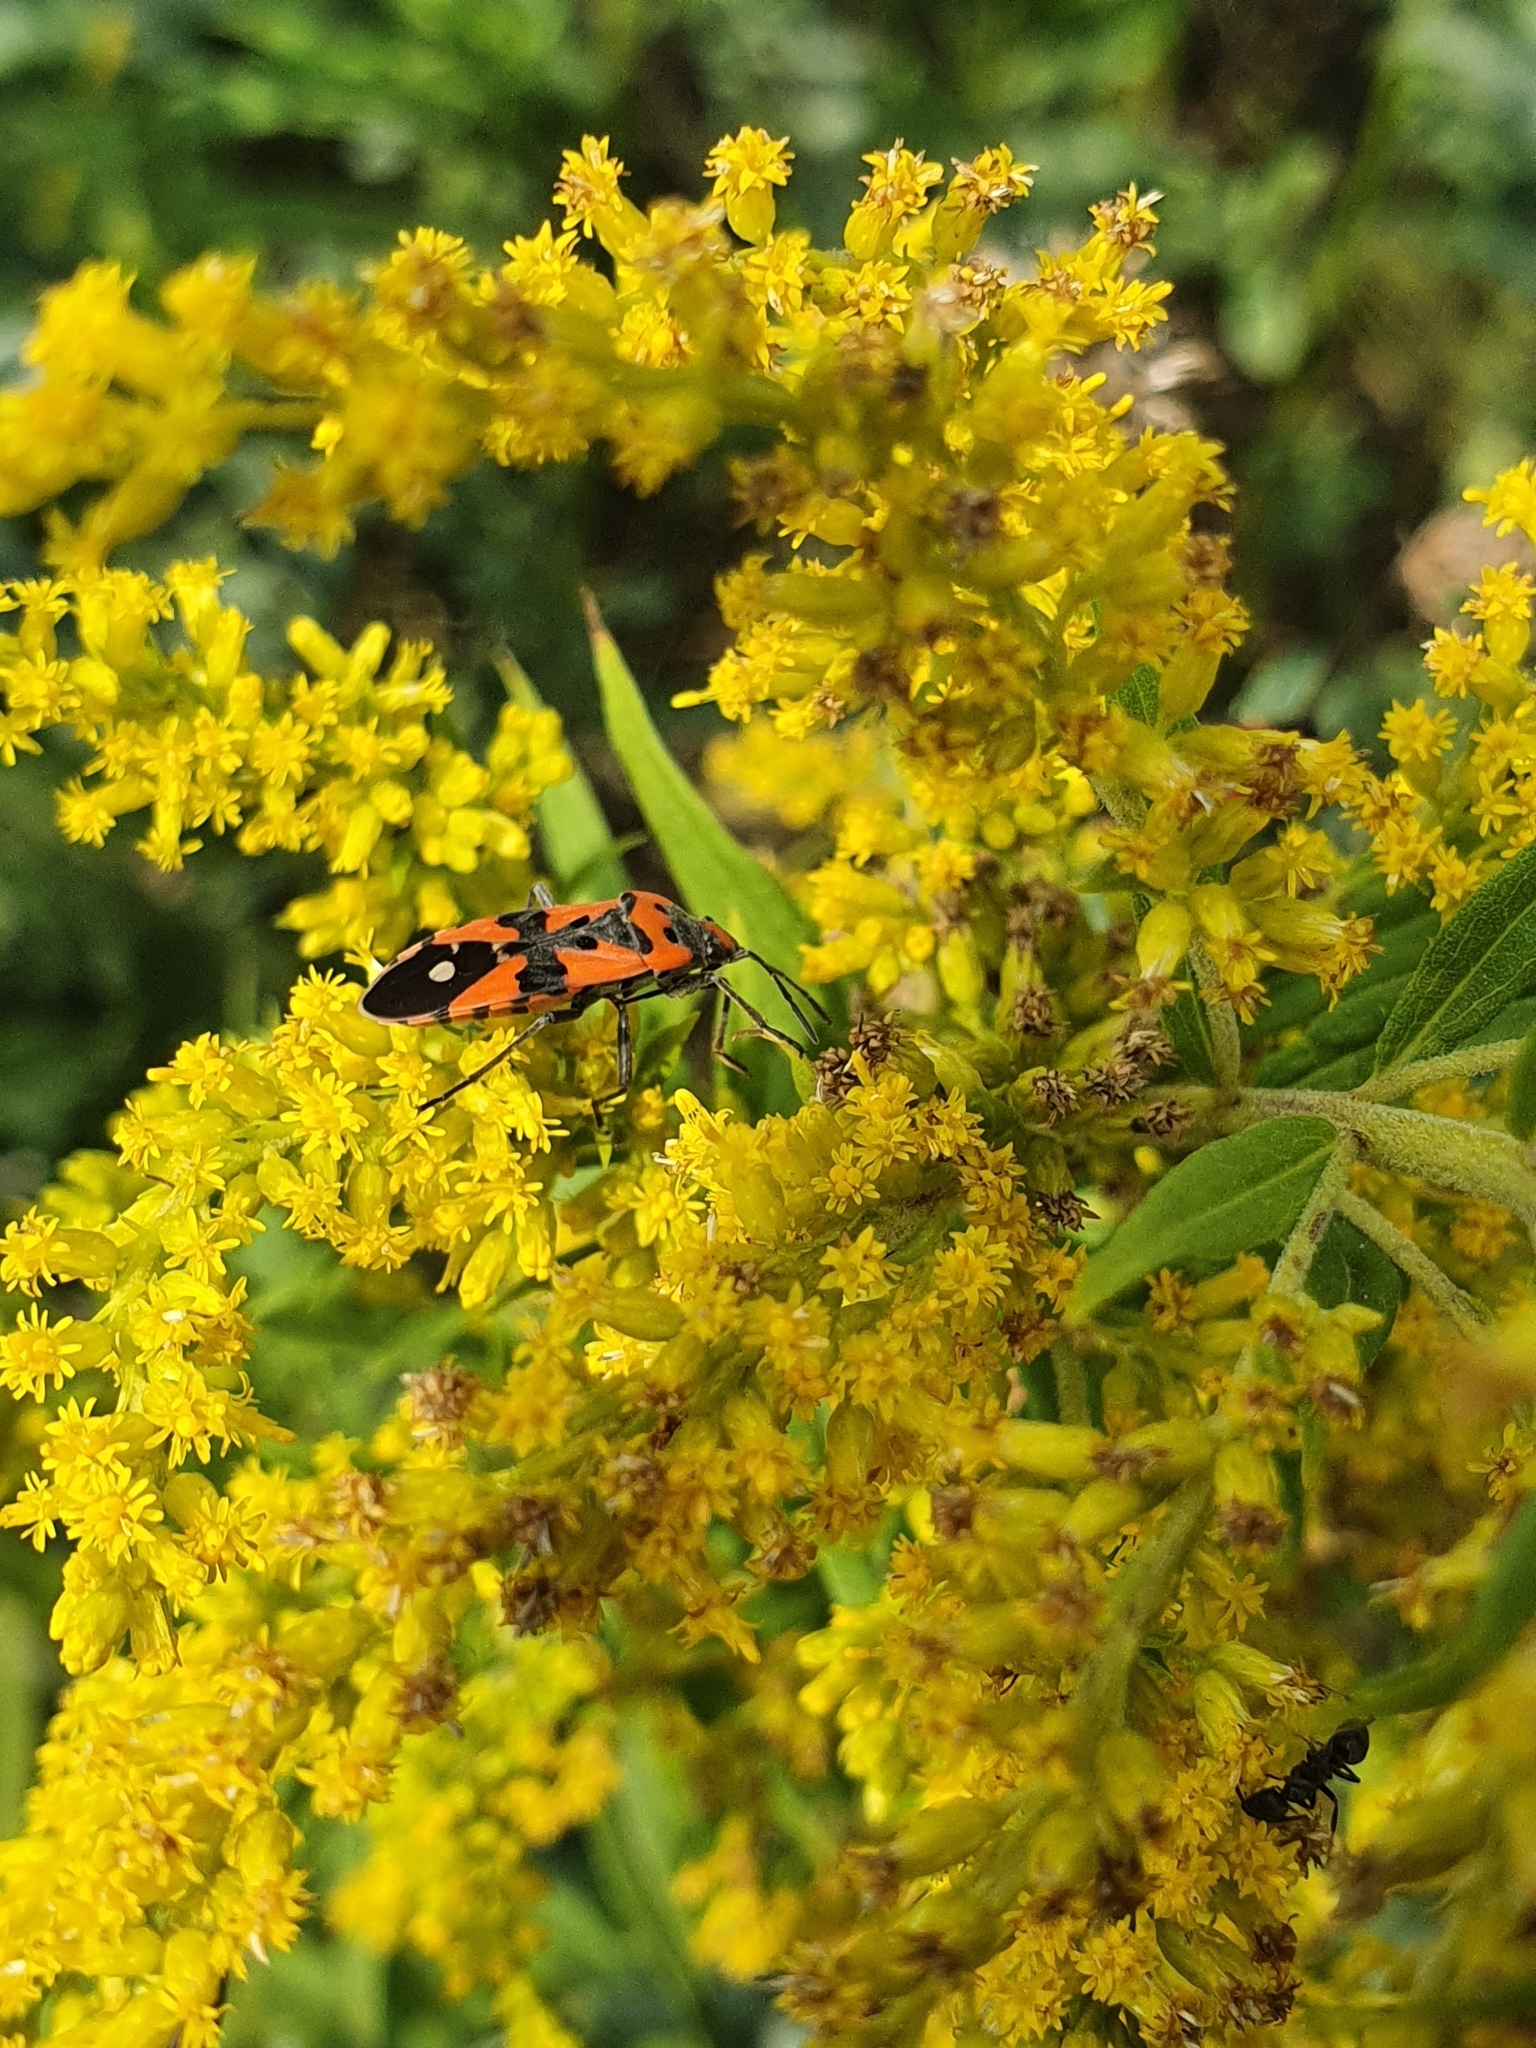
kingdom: Animalia
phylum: Arthropoda
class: Insecta
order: Hemiptera
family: Lygaeidae
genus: Lygaeus
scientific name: Lygaeus equestris
